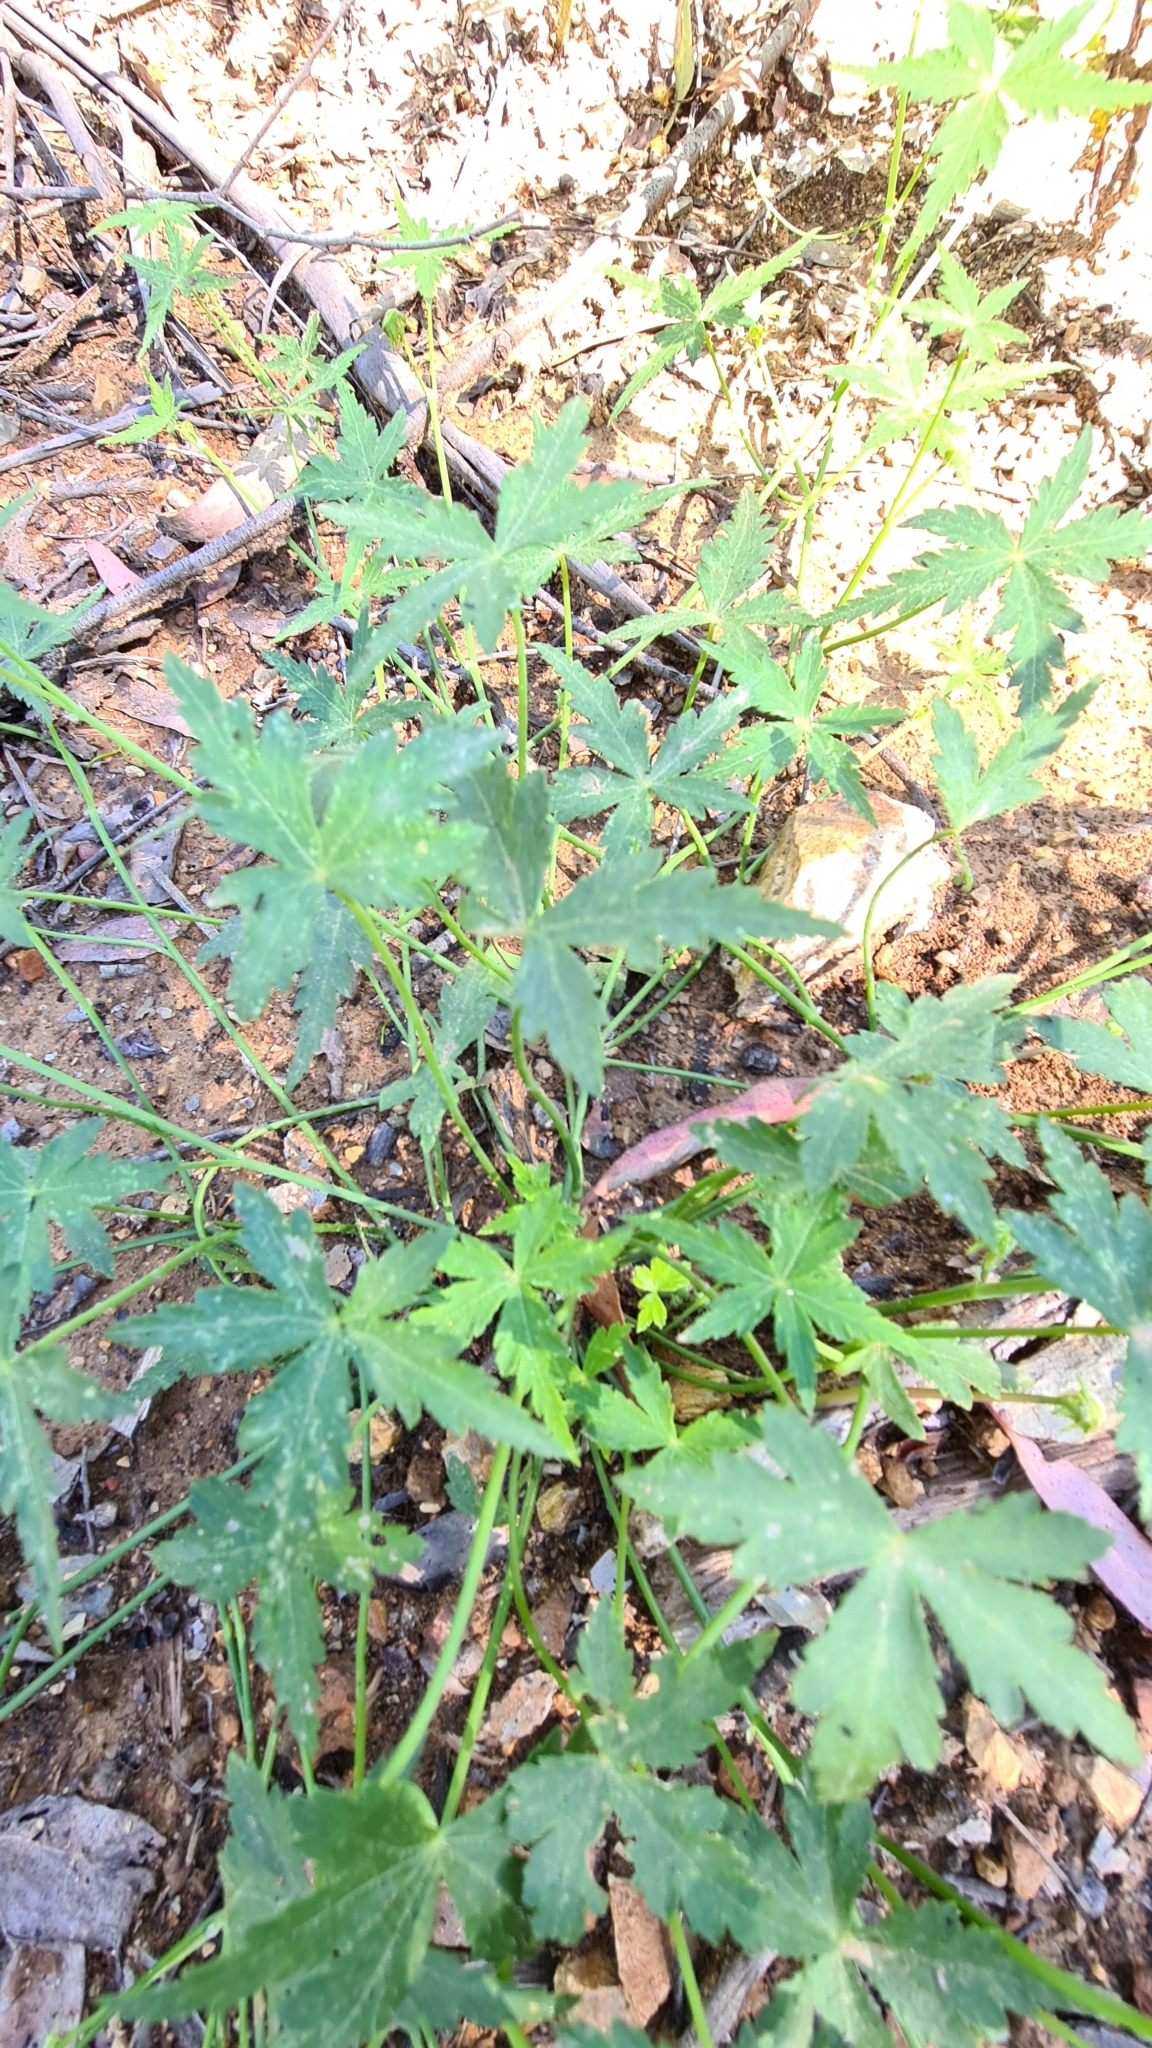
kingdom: Plantae
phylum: Tracheophyta
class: Magnoliopsida
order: Apiales
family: Araliaceae
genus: Hydrocotyle
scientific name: Hydrocotyle geraniifolia
